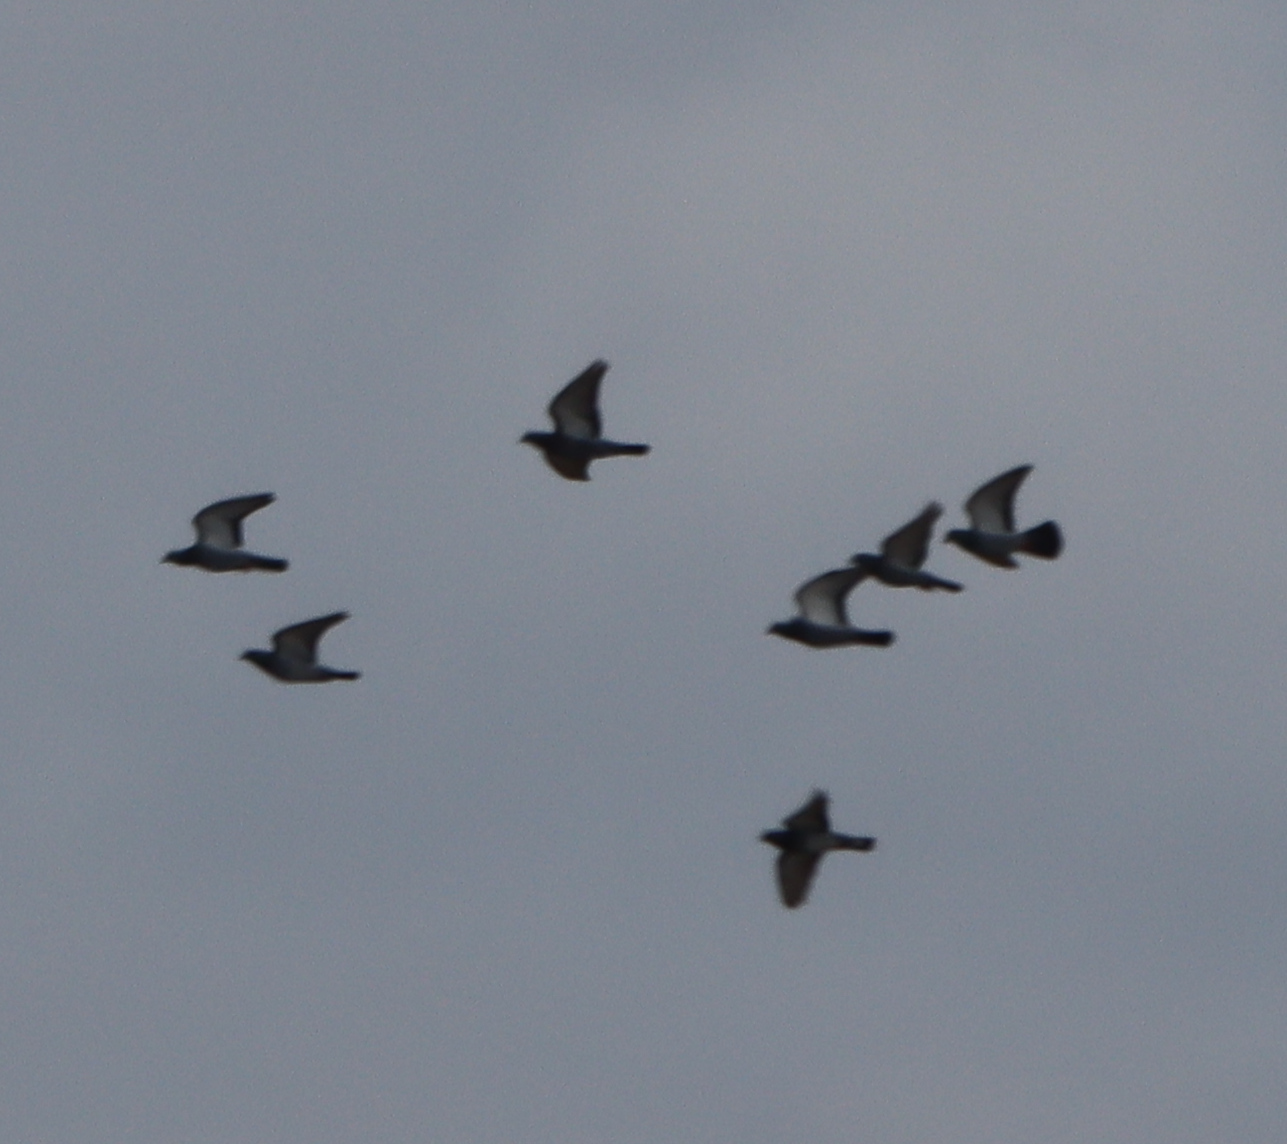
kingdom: Animalia
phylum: Chordata
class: Aves
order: Columbiformes
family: Columbidae
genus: Columba
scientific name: Columba livia
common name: Rock pigeon
